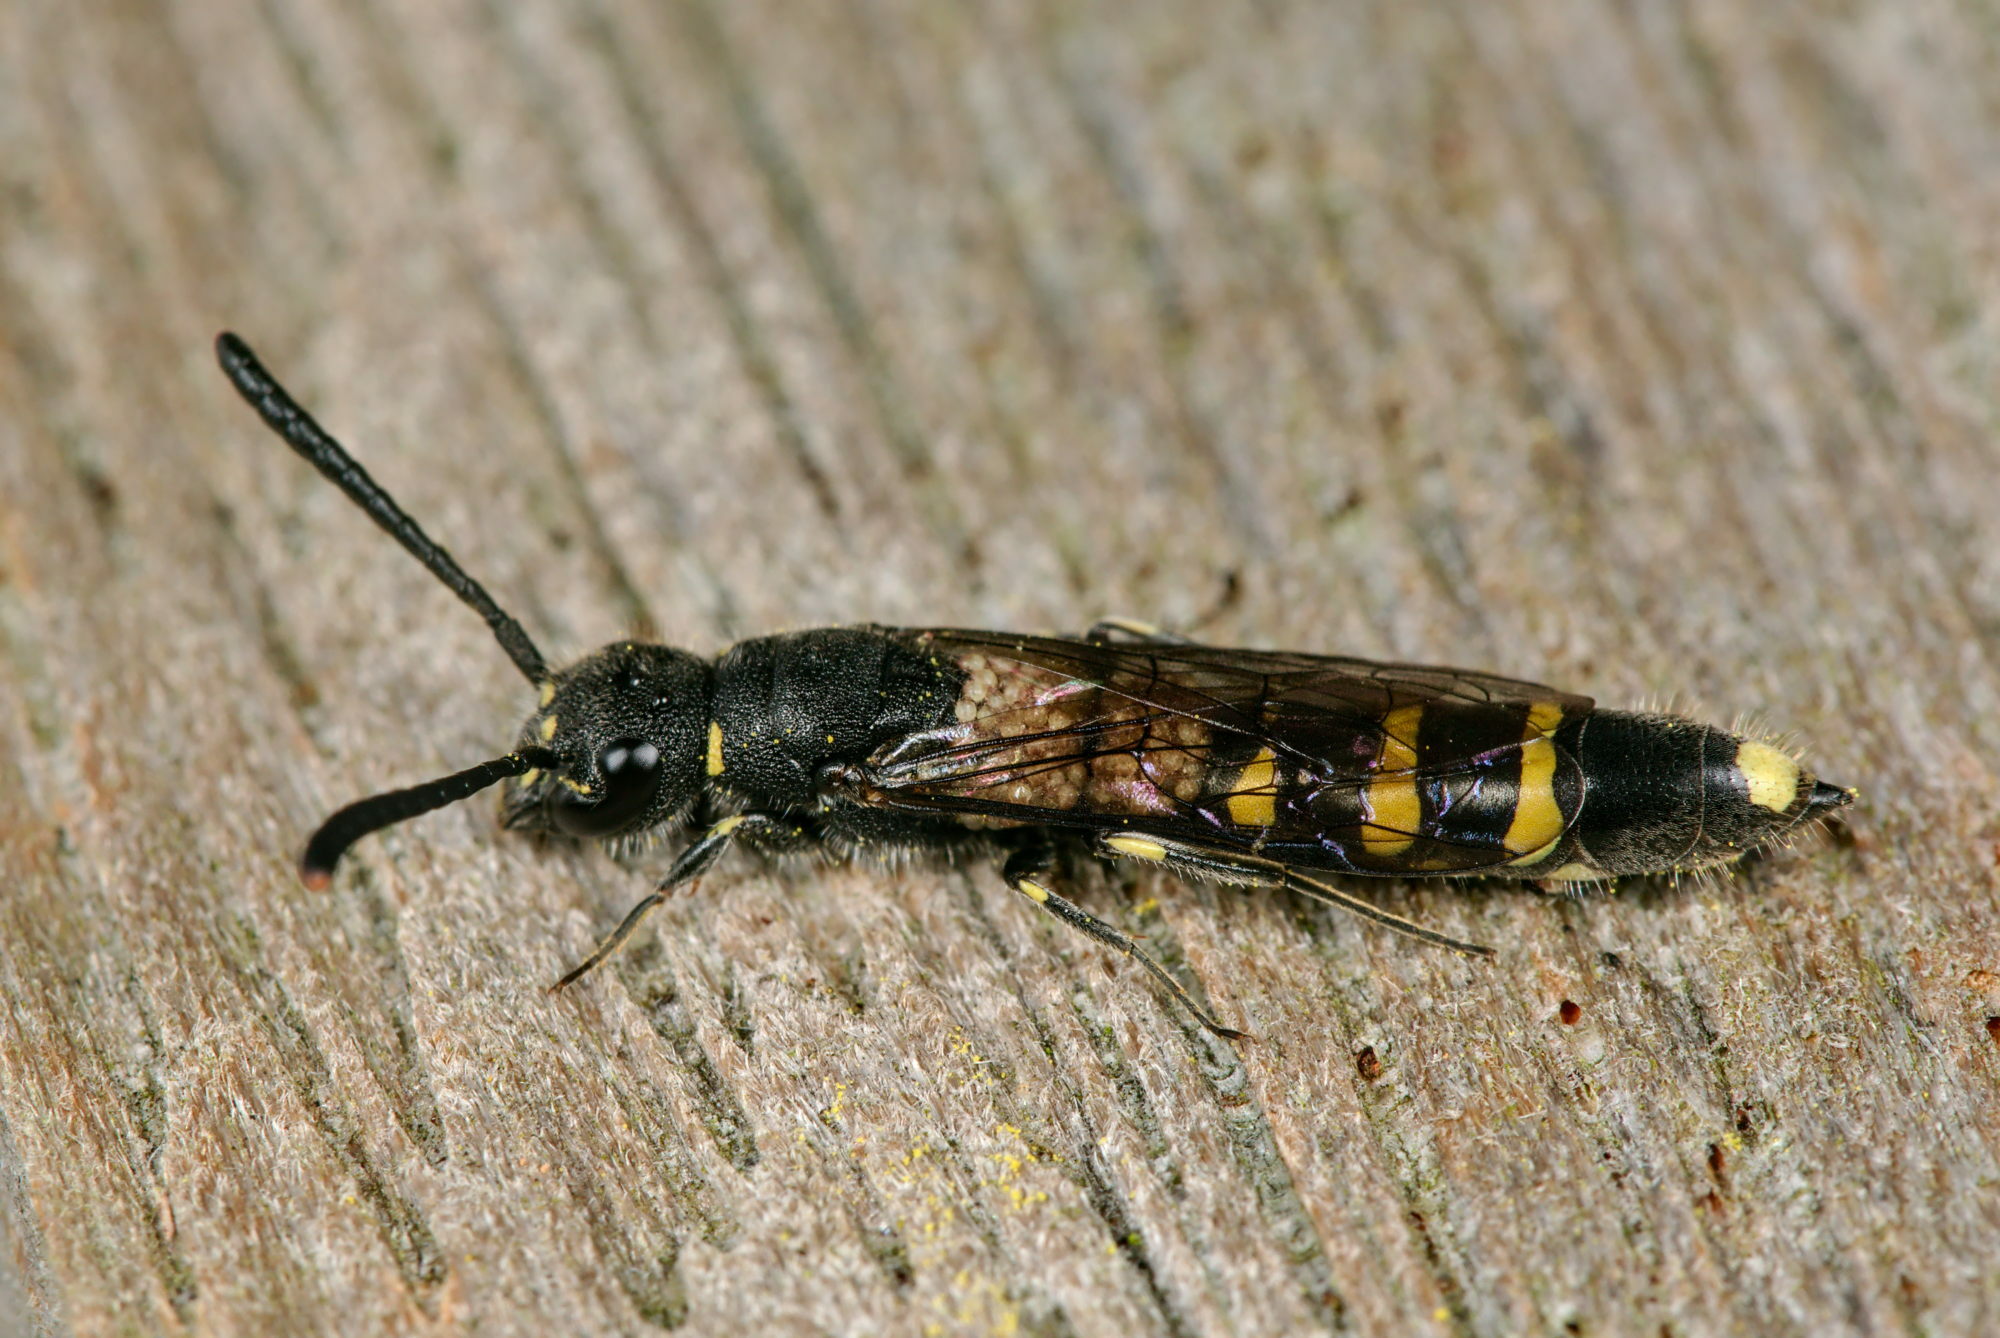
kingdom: Animalia
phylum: Arthropoda
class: Insecta
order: Hymenoptera
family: Sapygidae
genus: Monosapyga
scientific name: Monosapyga clavicornis
